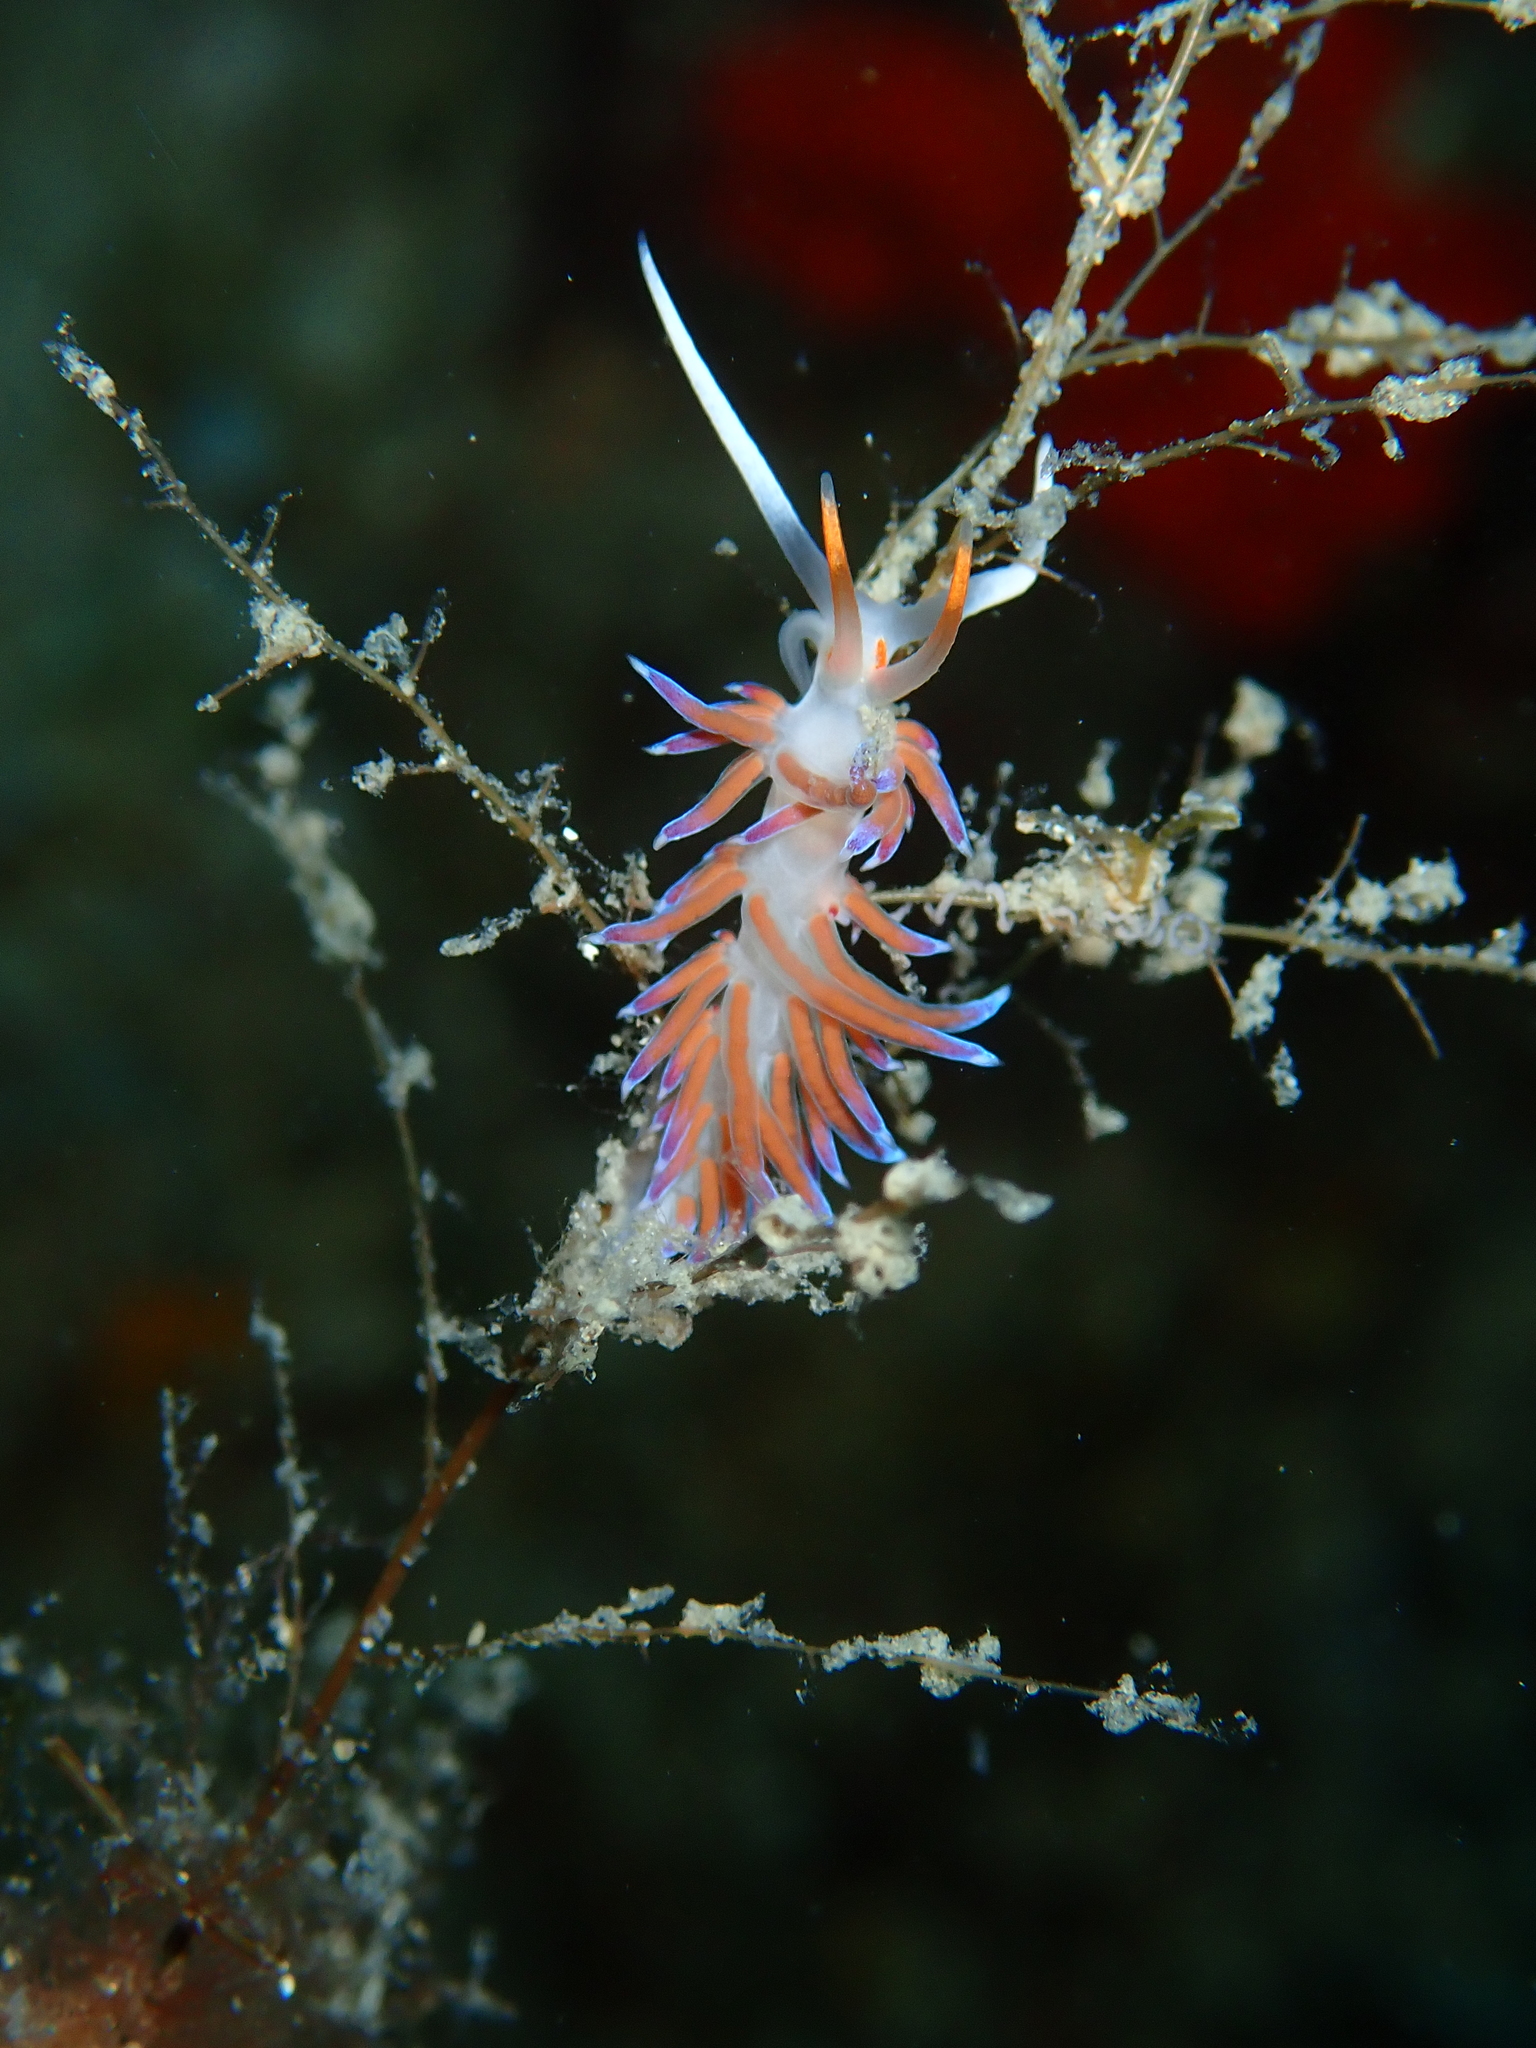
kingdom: Animalia
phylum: Mollusca
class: Gastropoda
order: Nudibranchia
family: Facelinidae
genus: Cratena
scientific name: Cratena peregrina
